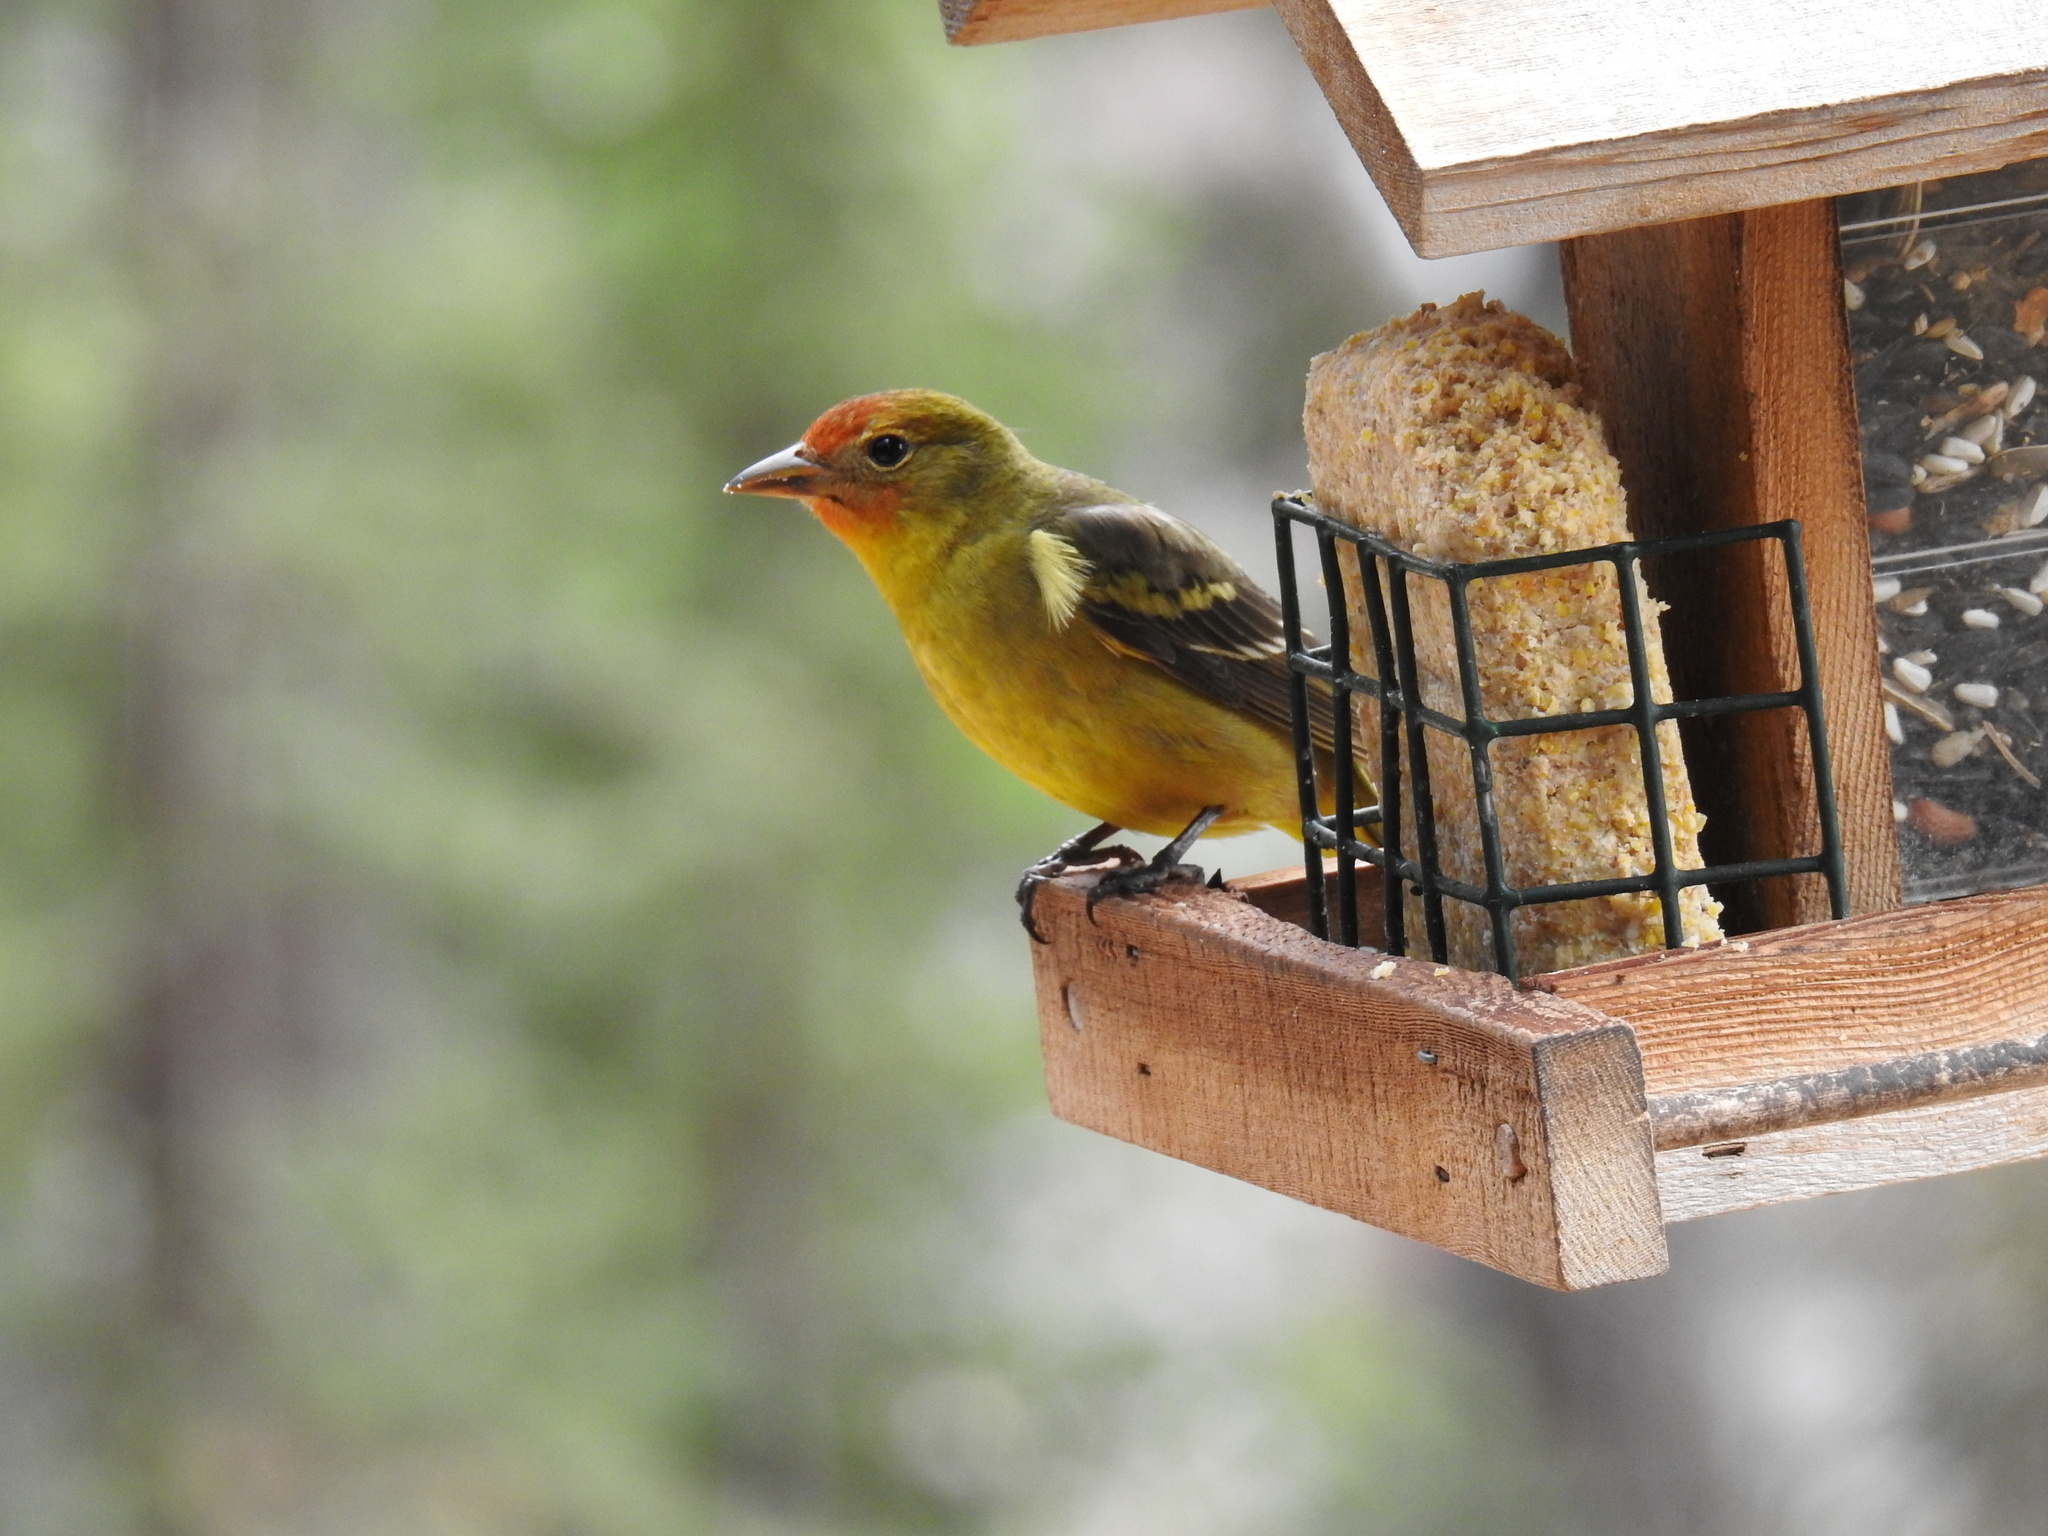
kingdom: Animalia
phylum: Chordata
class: Aves
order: Passeriformes
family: Cardinalidae
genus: Piranga
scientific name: Piranga ludoviciana
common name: Western tanager
